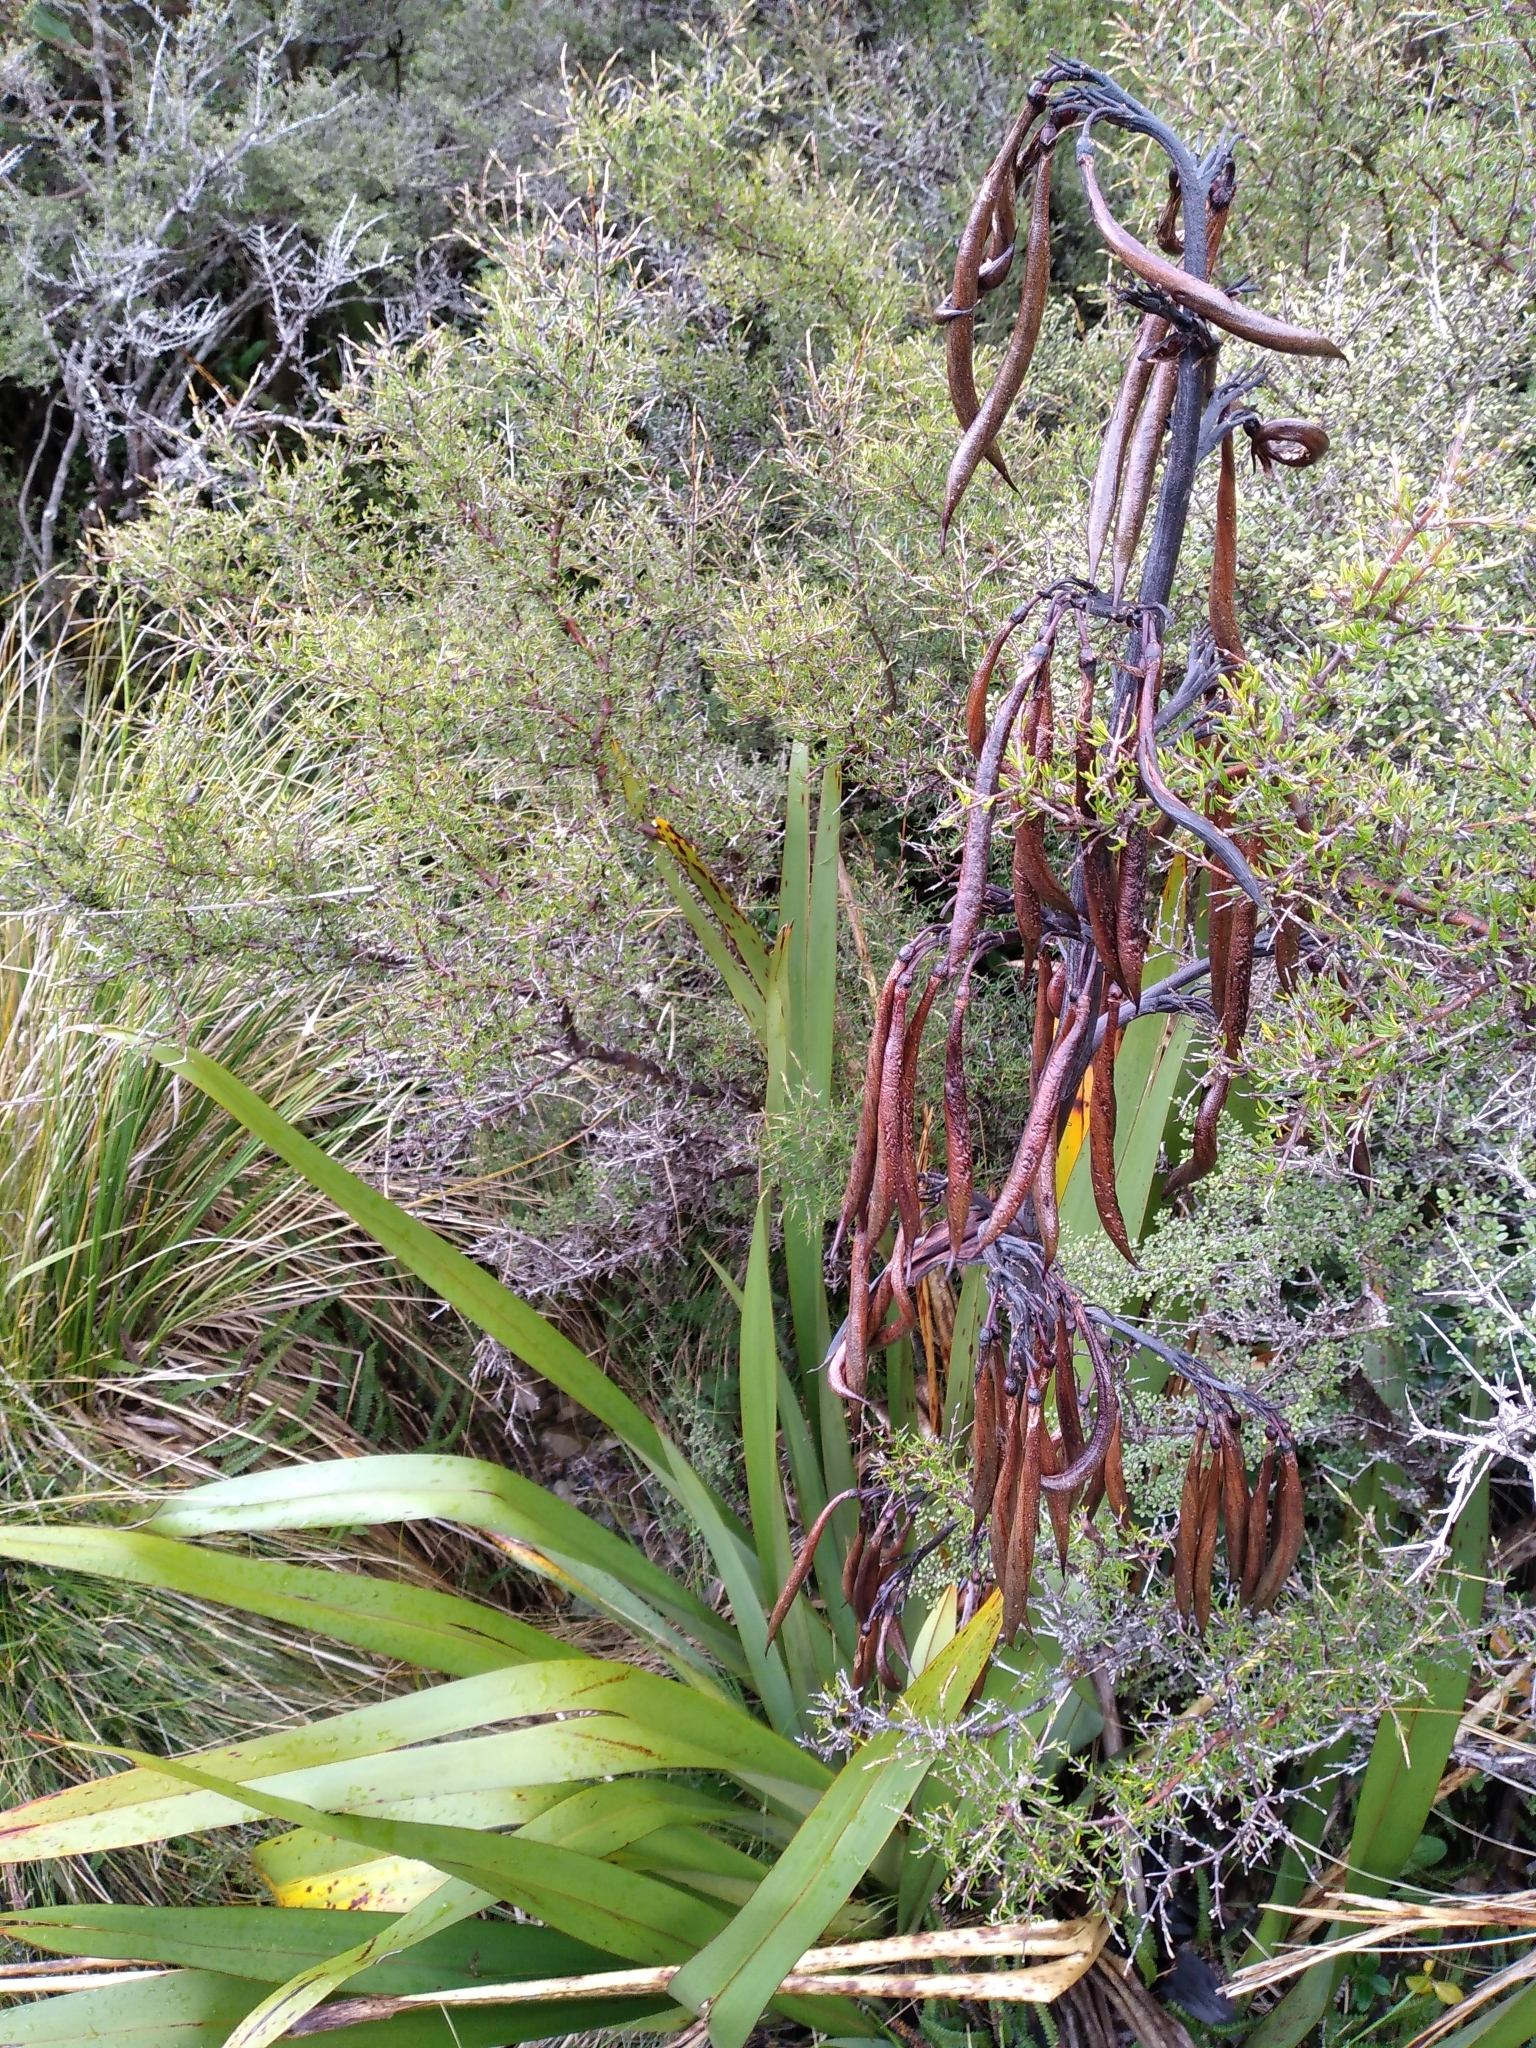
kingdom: Plantae
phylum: Tracheophyta
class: Liliopsida
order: Asparagales
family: Asphodelaceae
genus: Phormium
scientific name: Phormium colensoi
